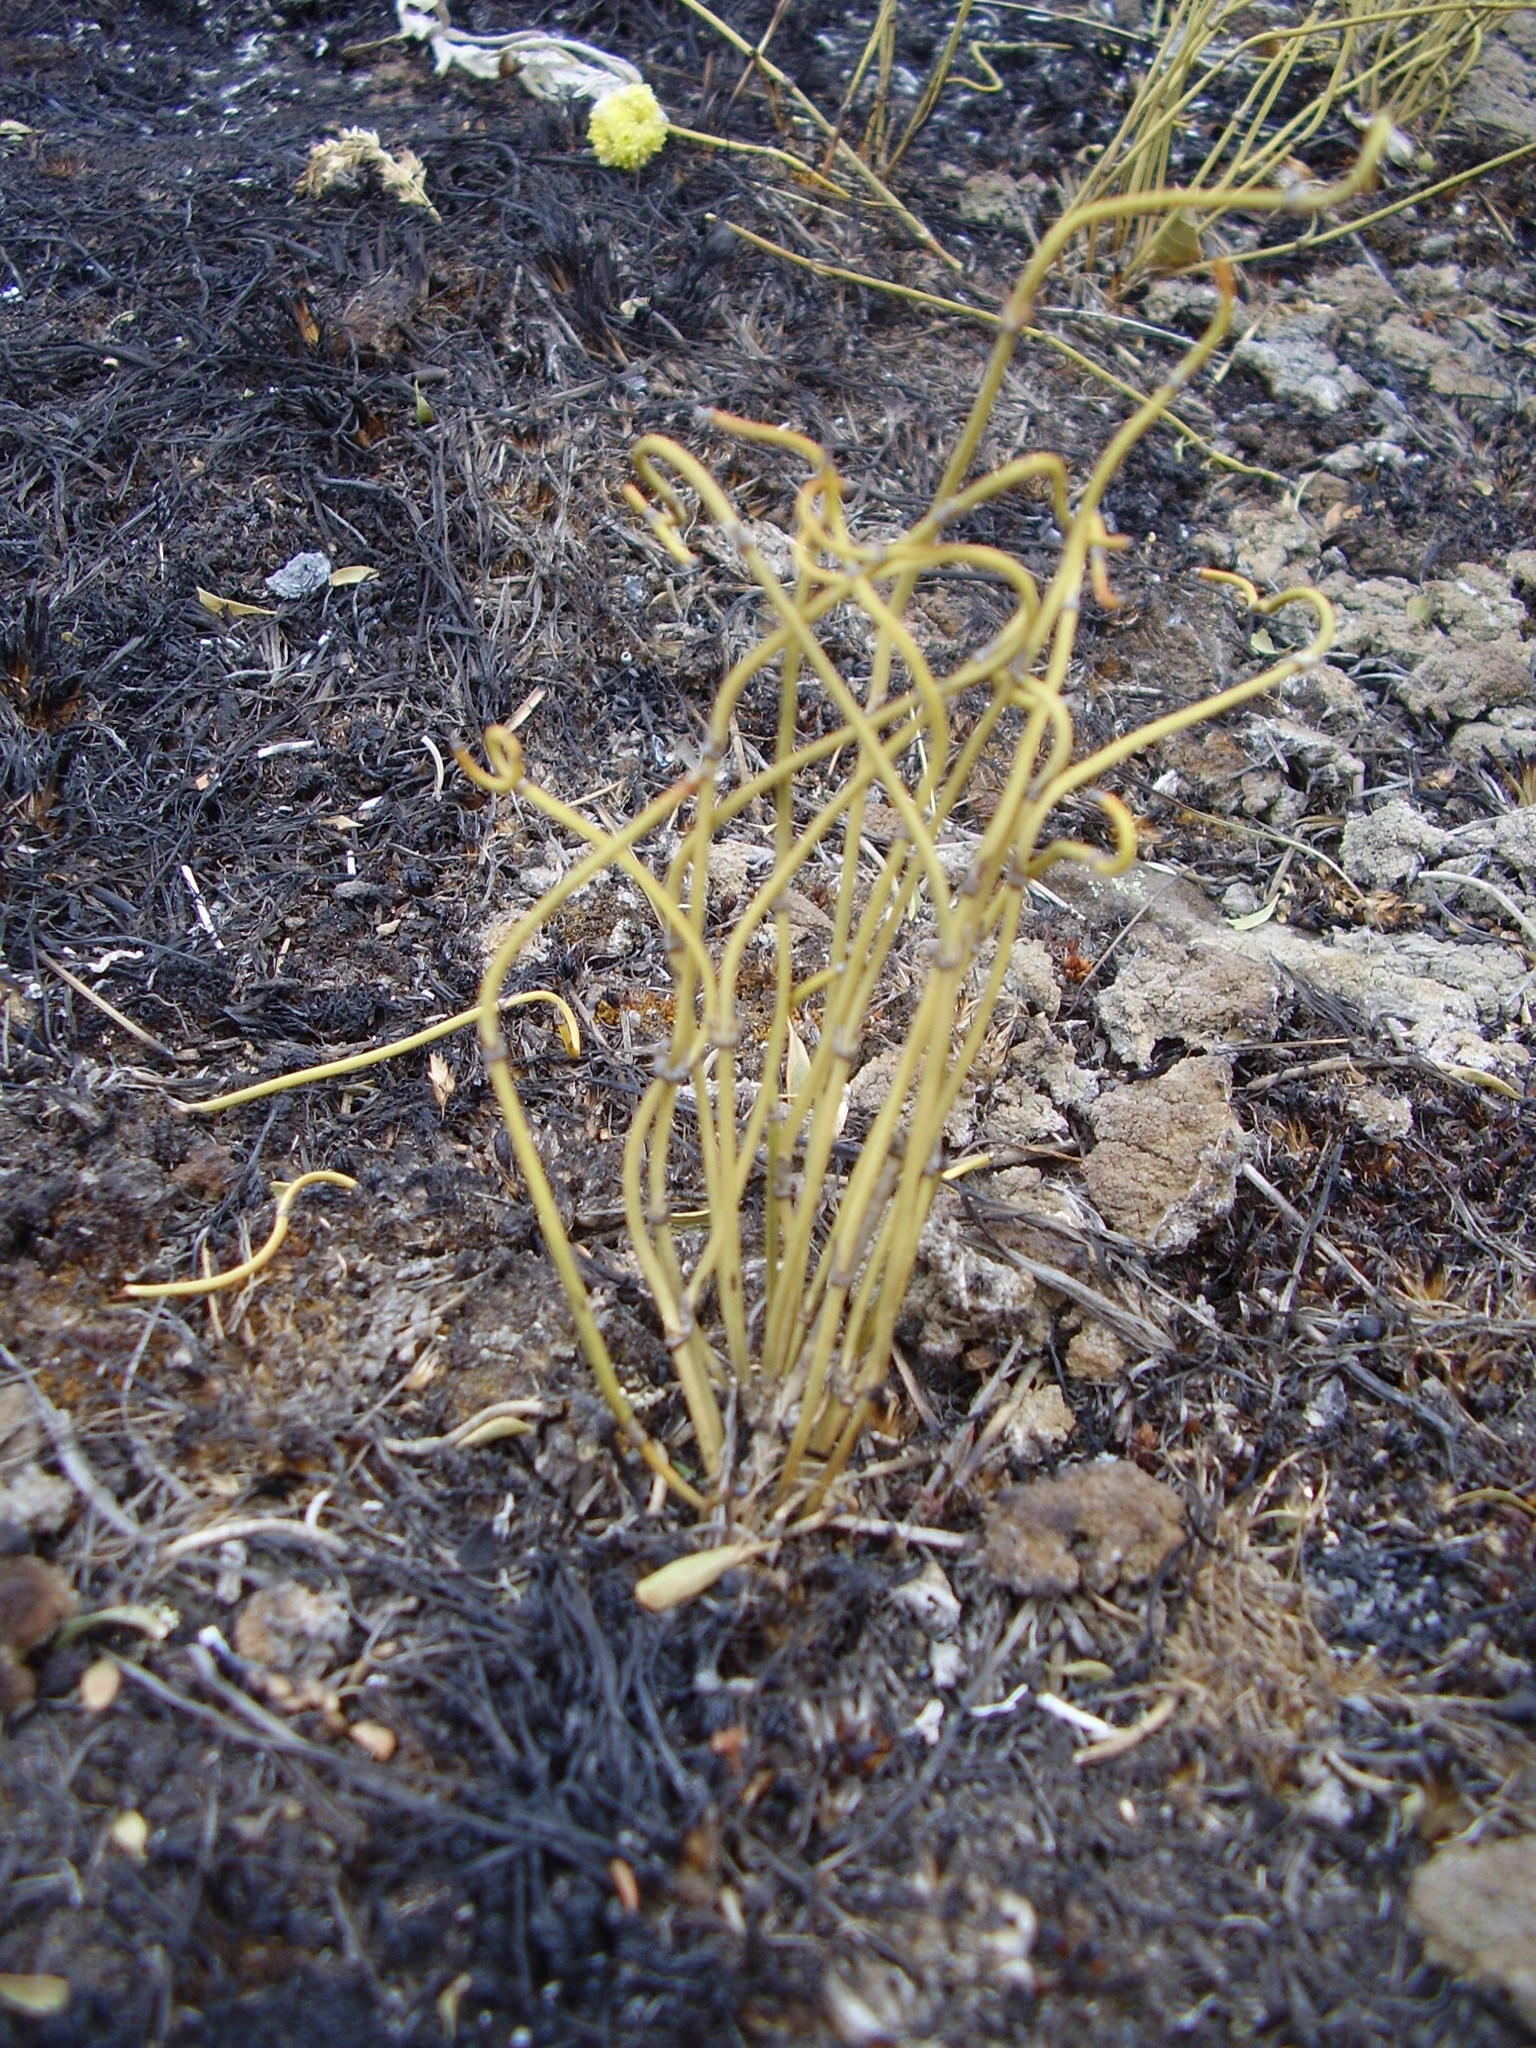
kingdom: Plantae
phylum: Tracheophyta
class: Gnetopsida
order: Ephedrales
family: Ephedraceae
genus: Ephedra
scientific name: Ephedra distachya
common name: Sea grape
